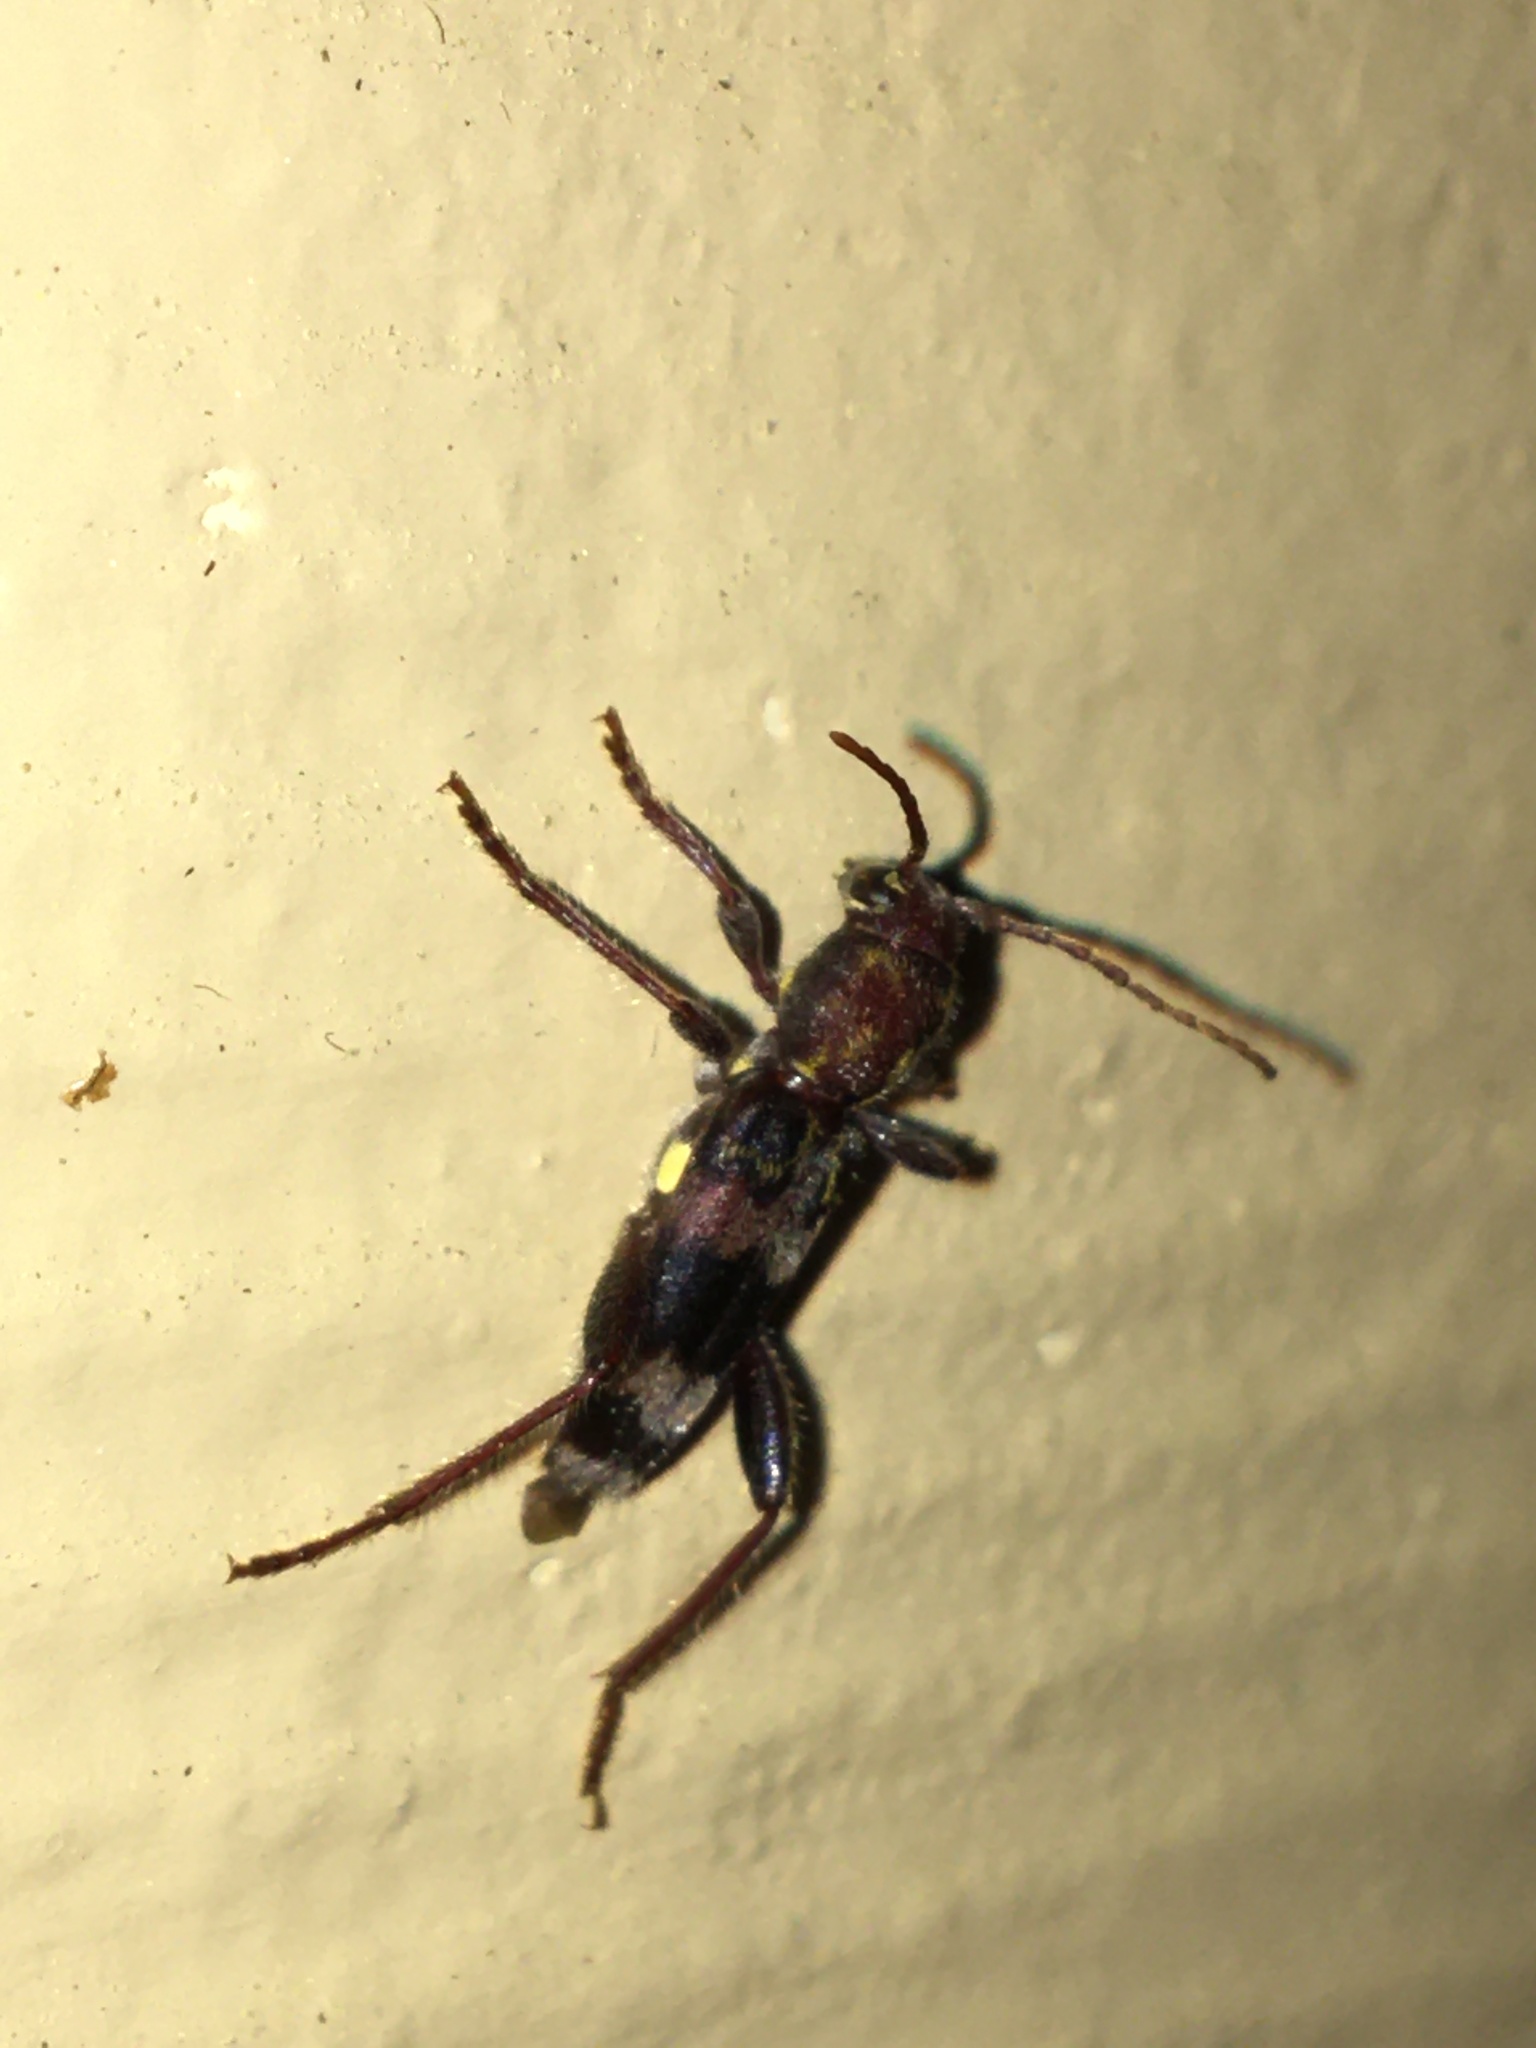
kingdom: Animalia
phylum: Arthropoda
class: Insecta
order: Coleoptera
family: Cerambycidae
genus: Xylotrechus
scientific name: Xylotrechus colonus
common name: Long-horned beetle
